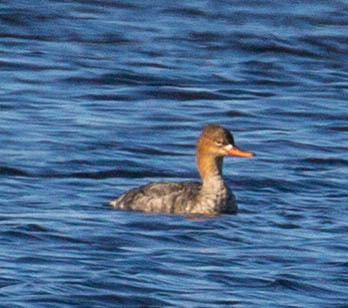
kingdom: Animalia
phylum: Chordata
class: Aves
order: Anseriformes
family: Anatidae
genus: Mergus
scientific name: Mergus serrator
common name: Red-breasted merganser
